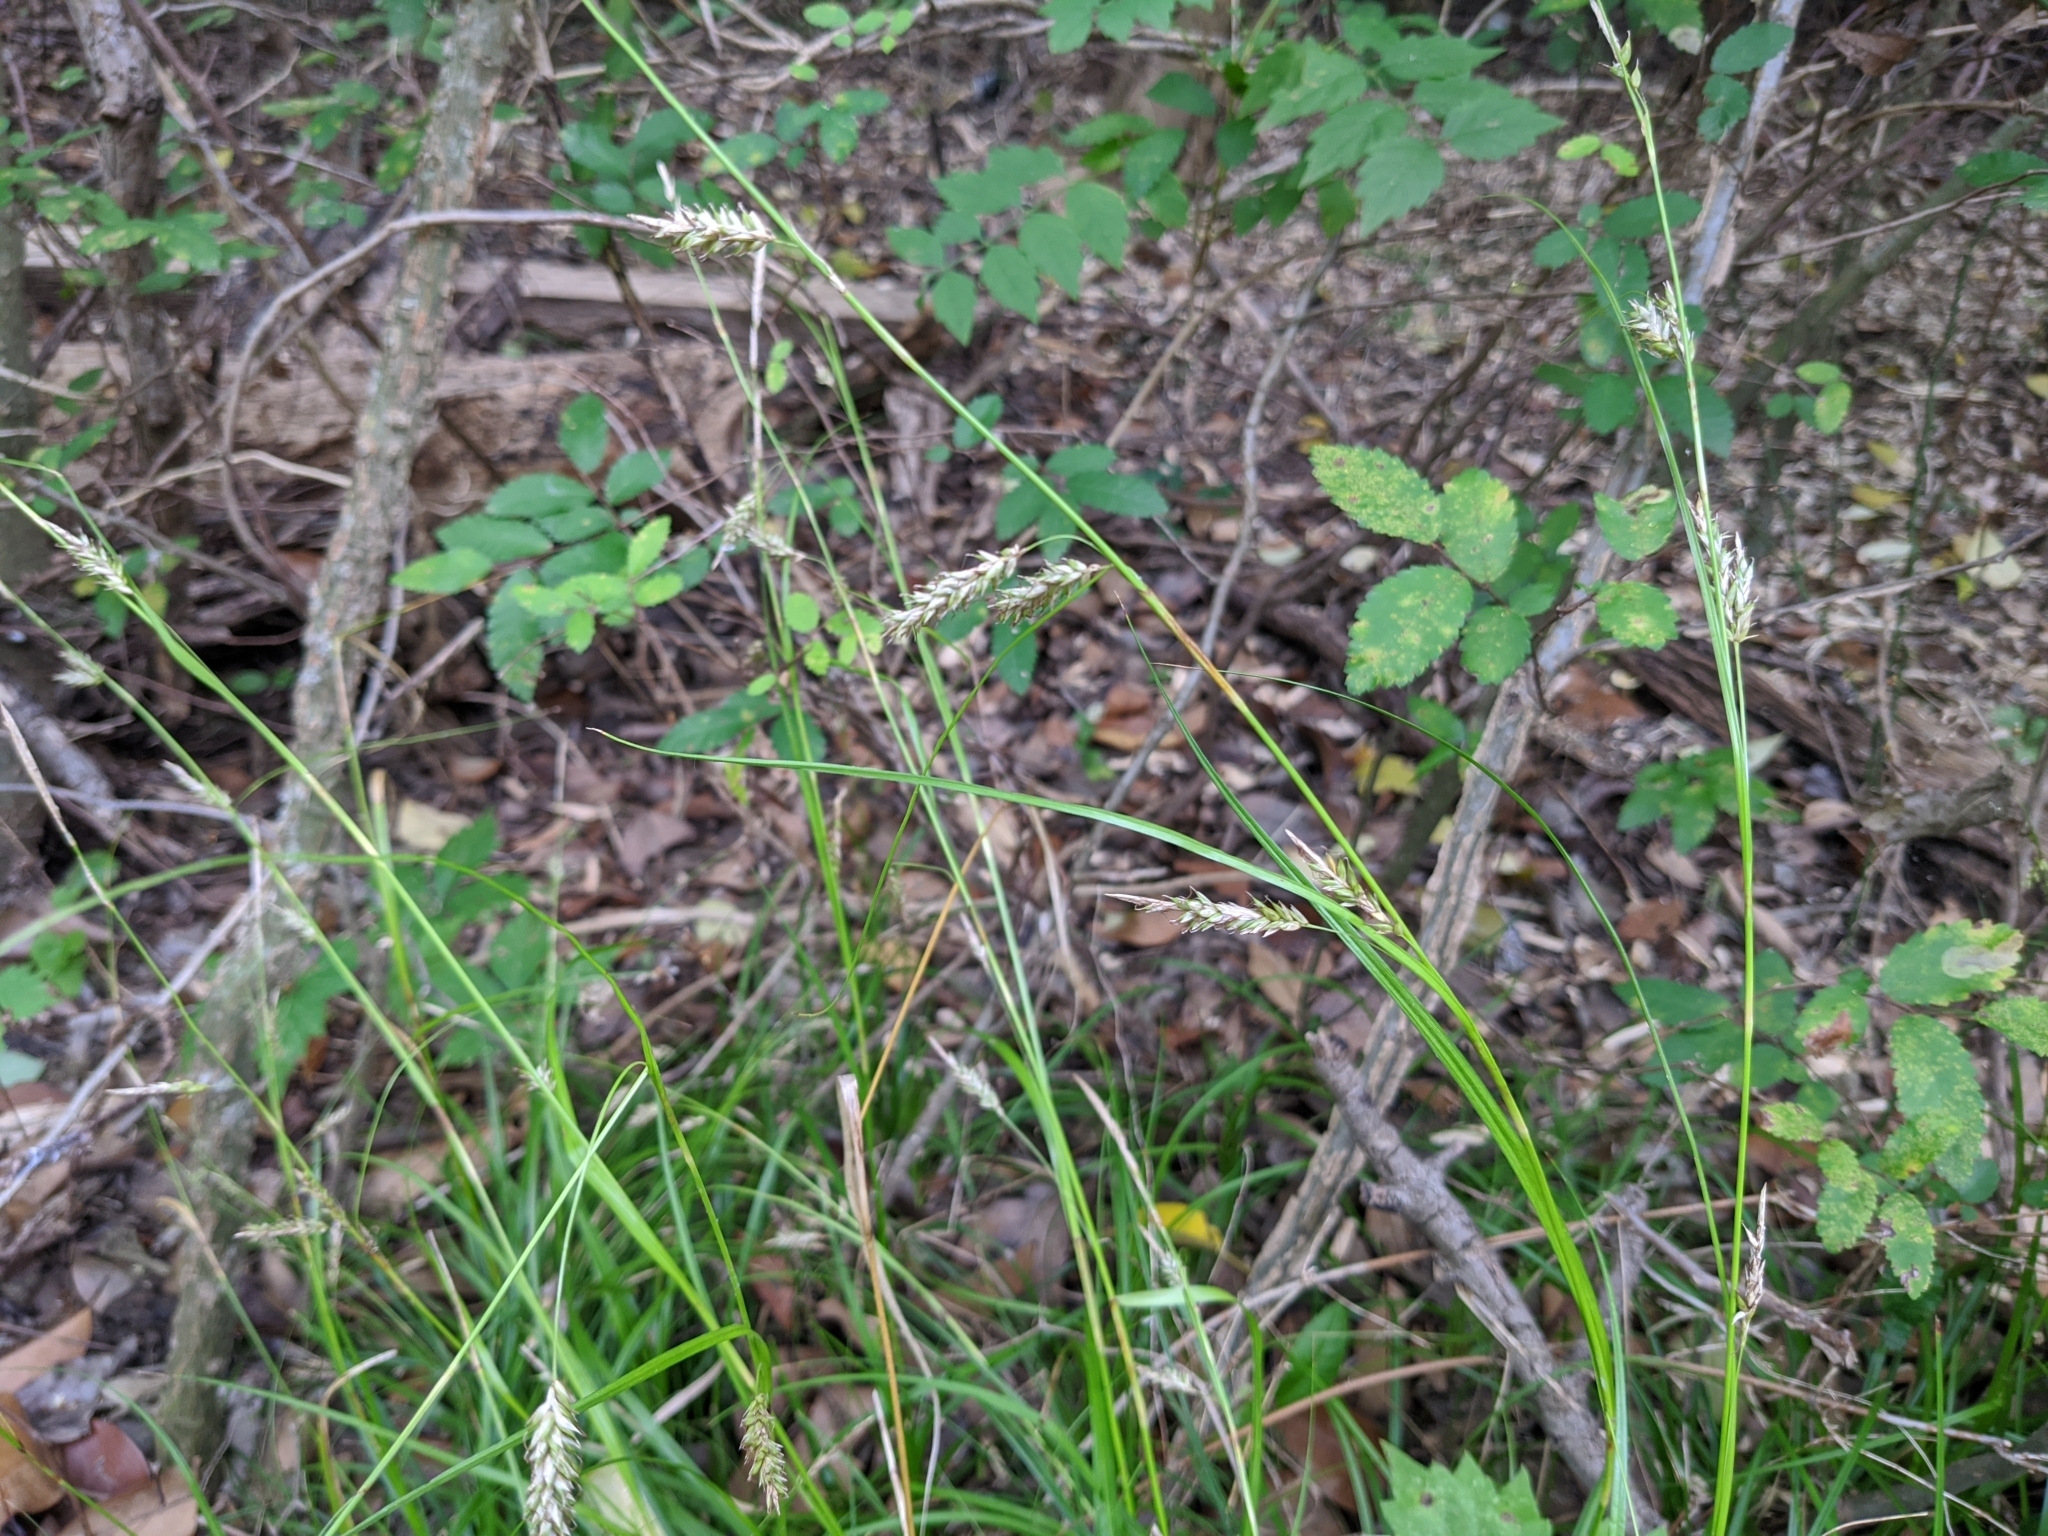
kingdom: Plantae
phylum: Tracheophyta
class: Liliopsida
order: Poales
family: Cyperaceae
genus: Carex
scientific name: Carex cherokeensis
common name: Cherokee sedge
